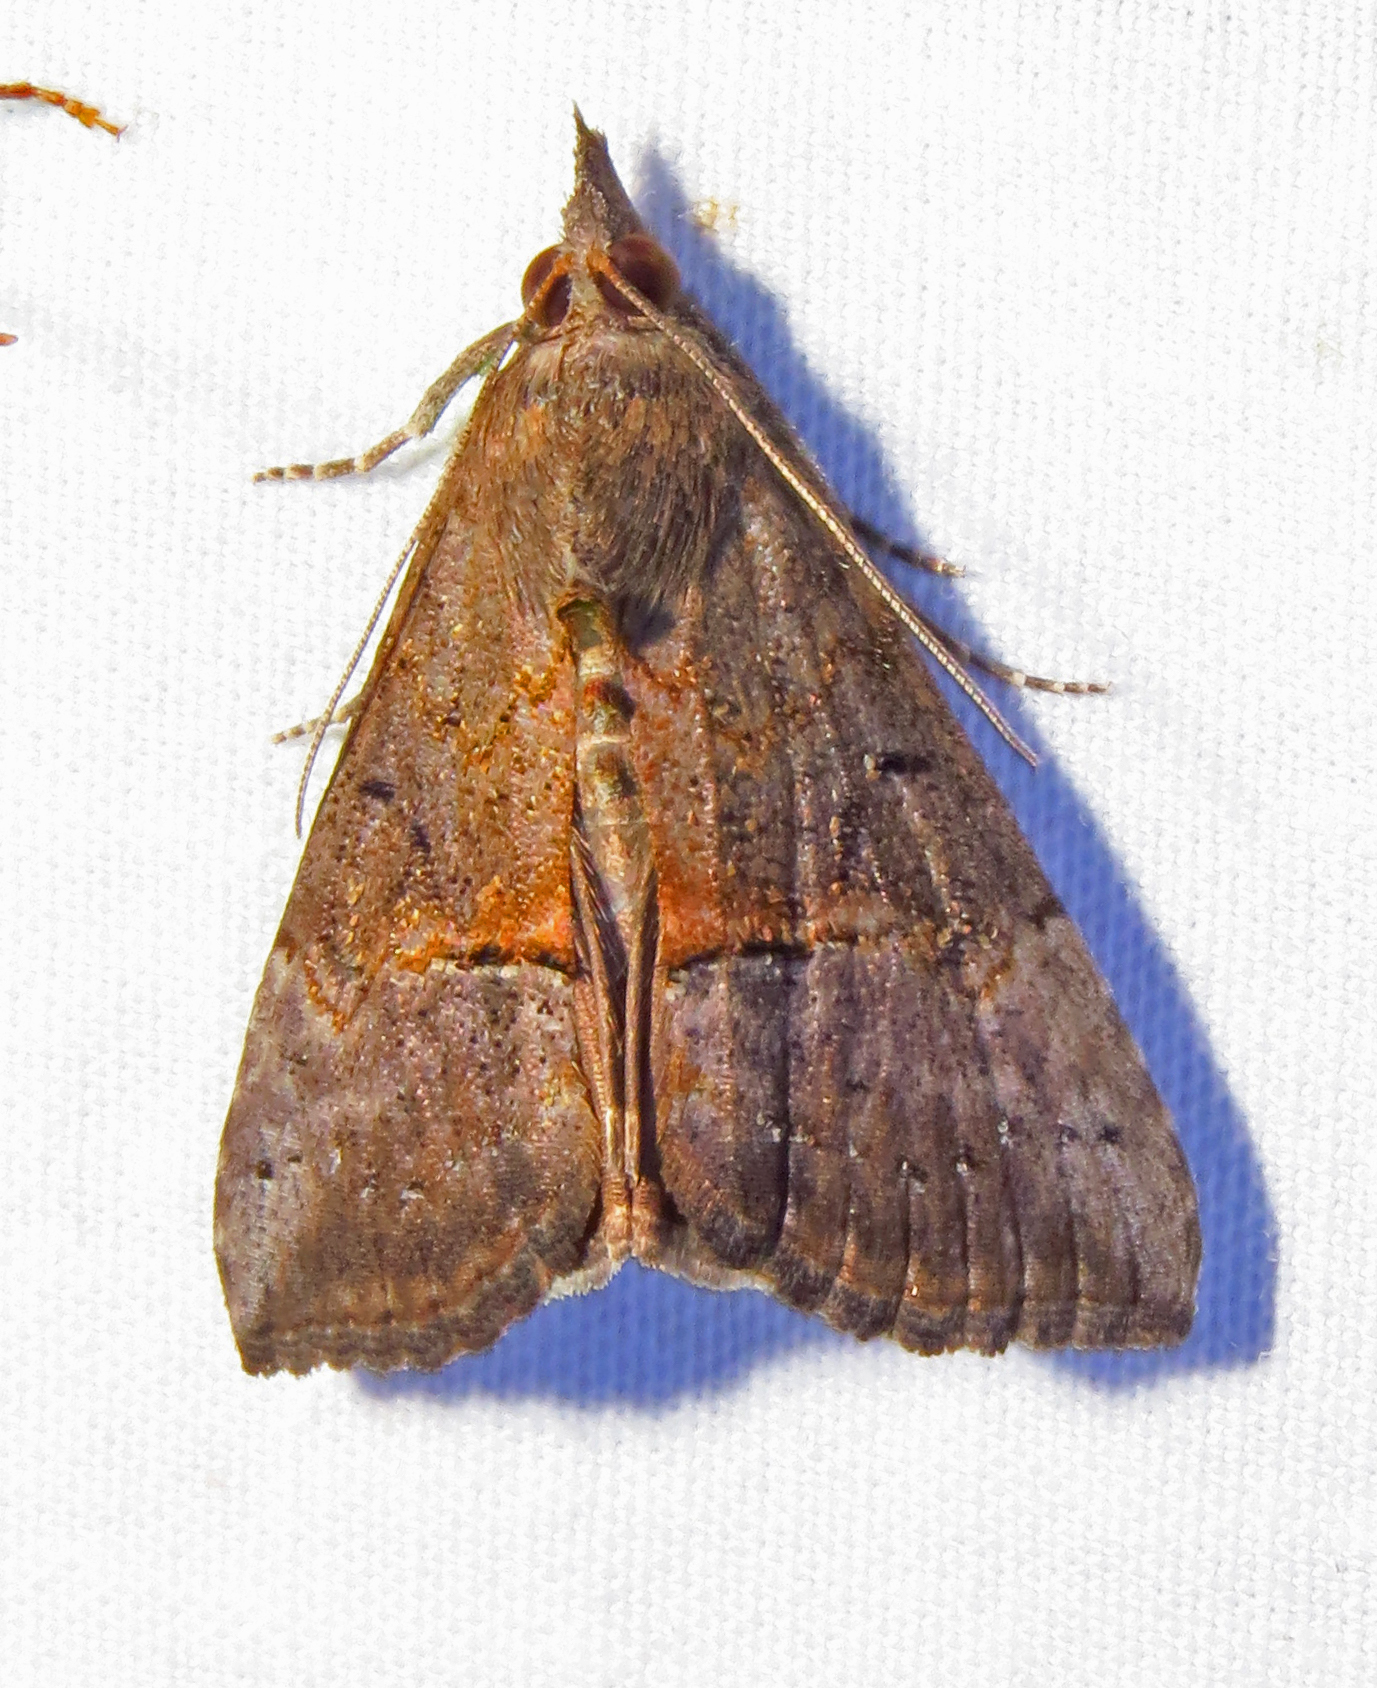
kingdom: Animalia
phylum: Arthropoda
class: Insecta
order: Lepidoptera
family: Erebidae
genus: Hypena
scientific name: Hypena scabra
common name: Green cloverworm
